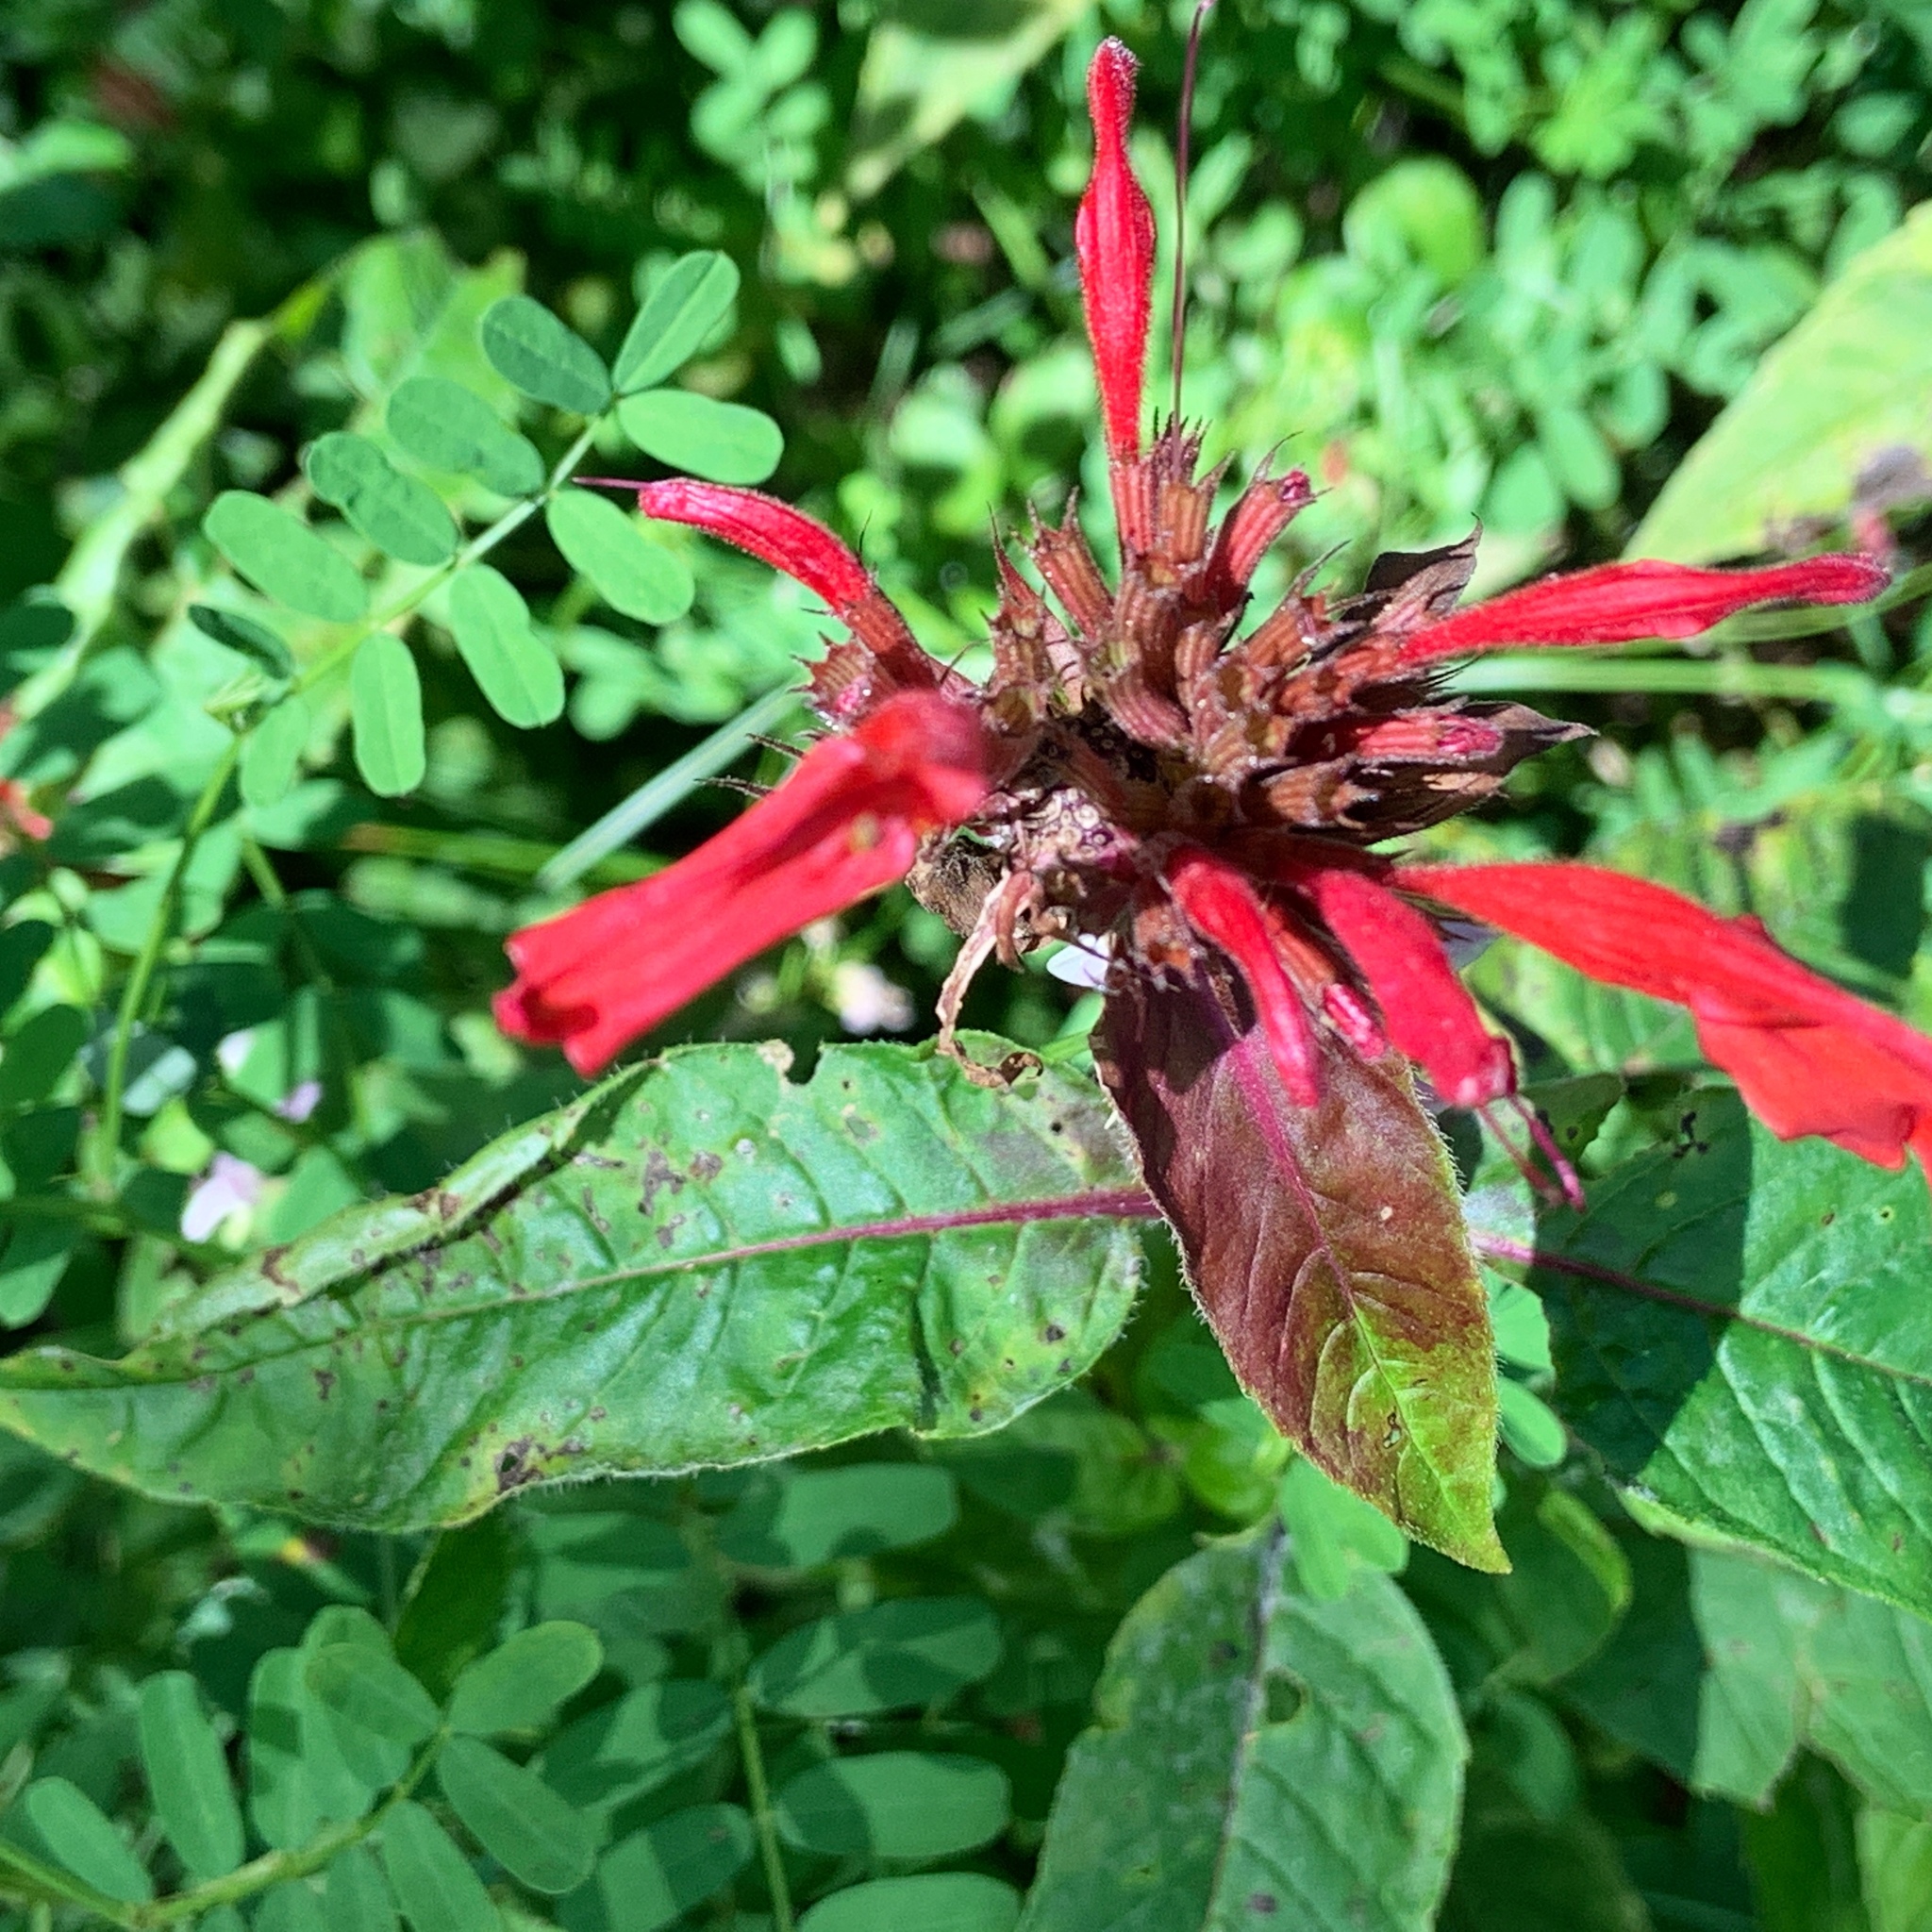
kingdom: Plantae
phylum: Tracheophyta
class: Magnoliopsida
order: Lamiales
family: Lamiaceae
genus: Monarda
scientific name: Monarda didyma
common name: Beebalm
